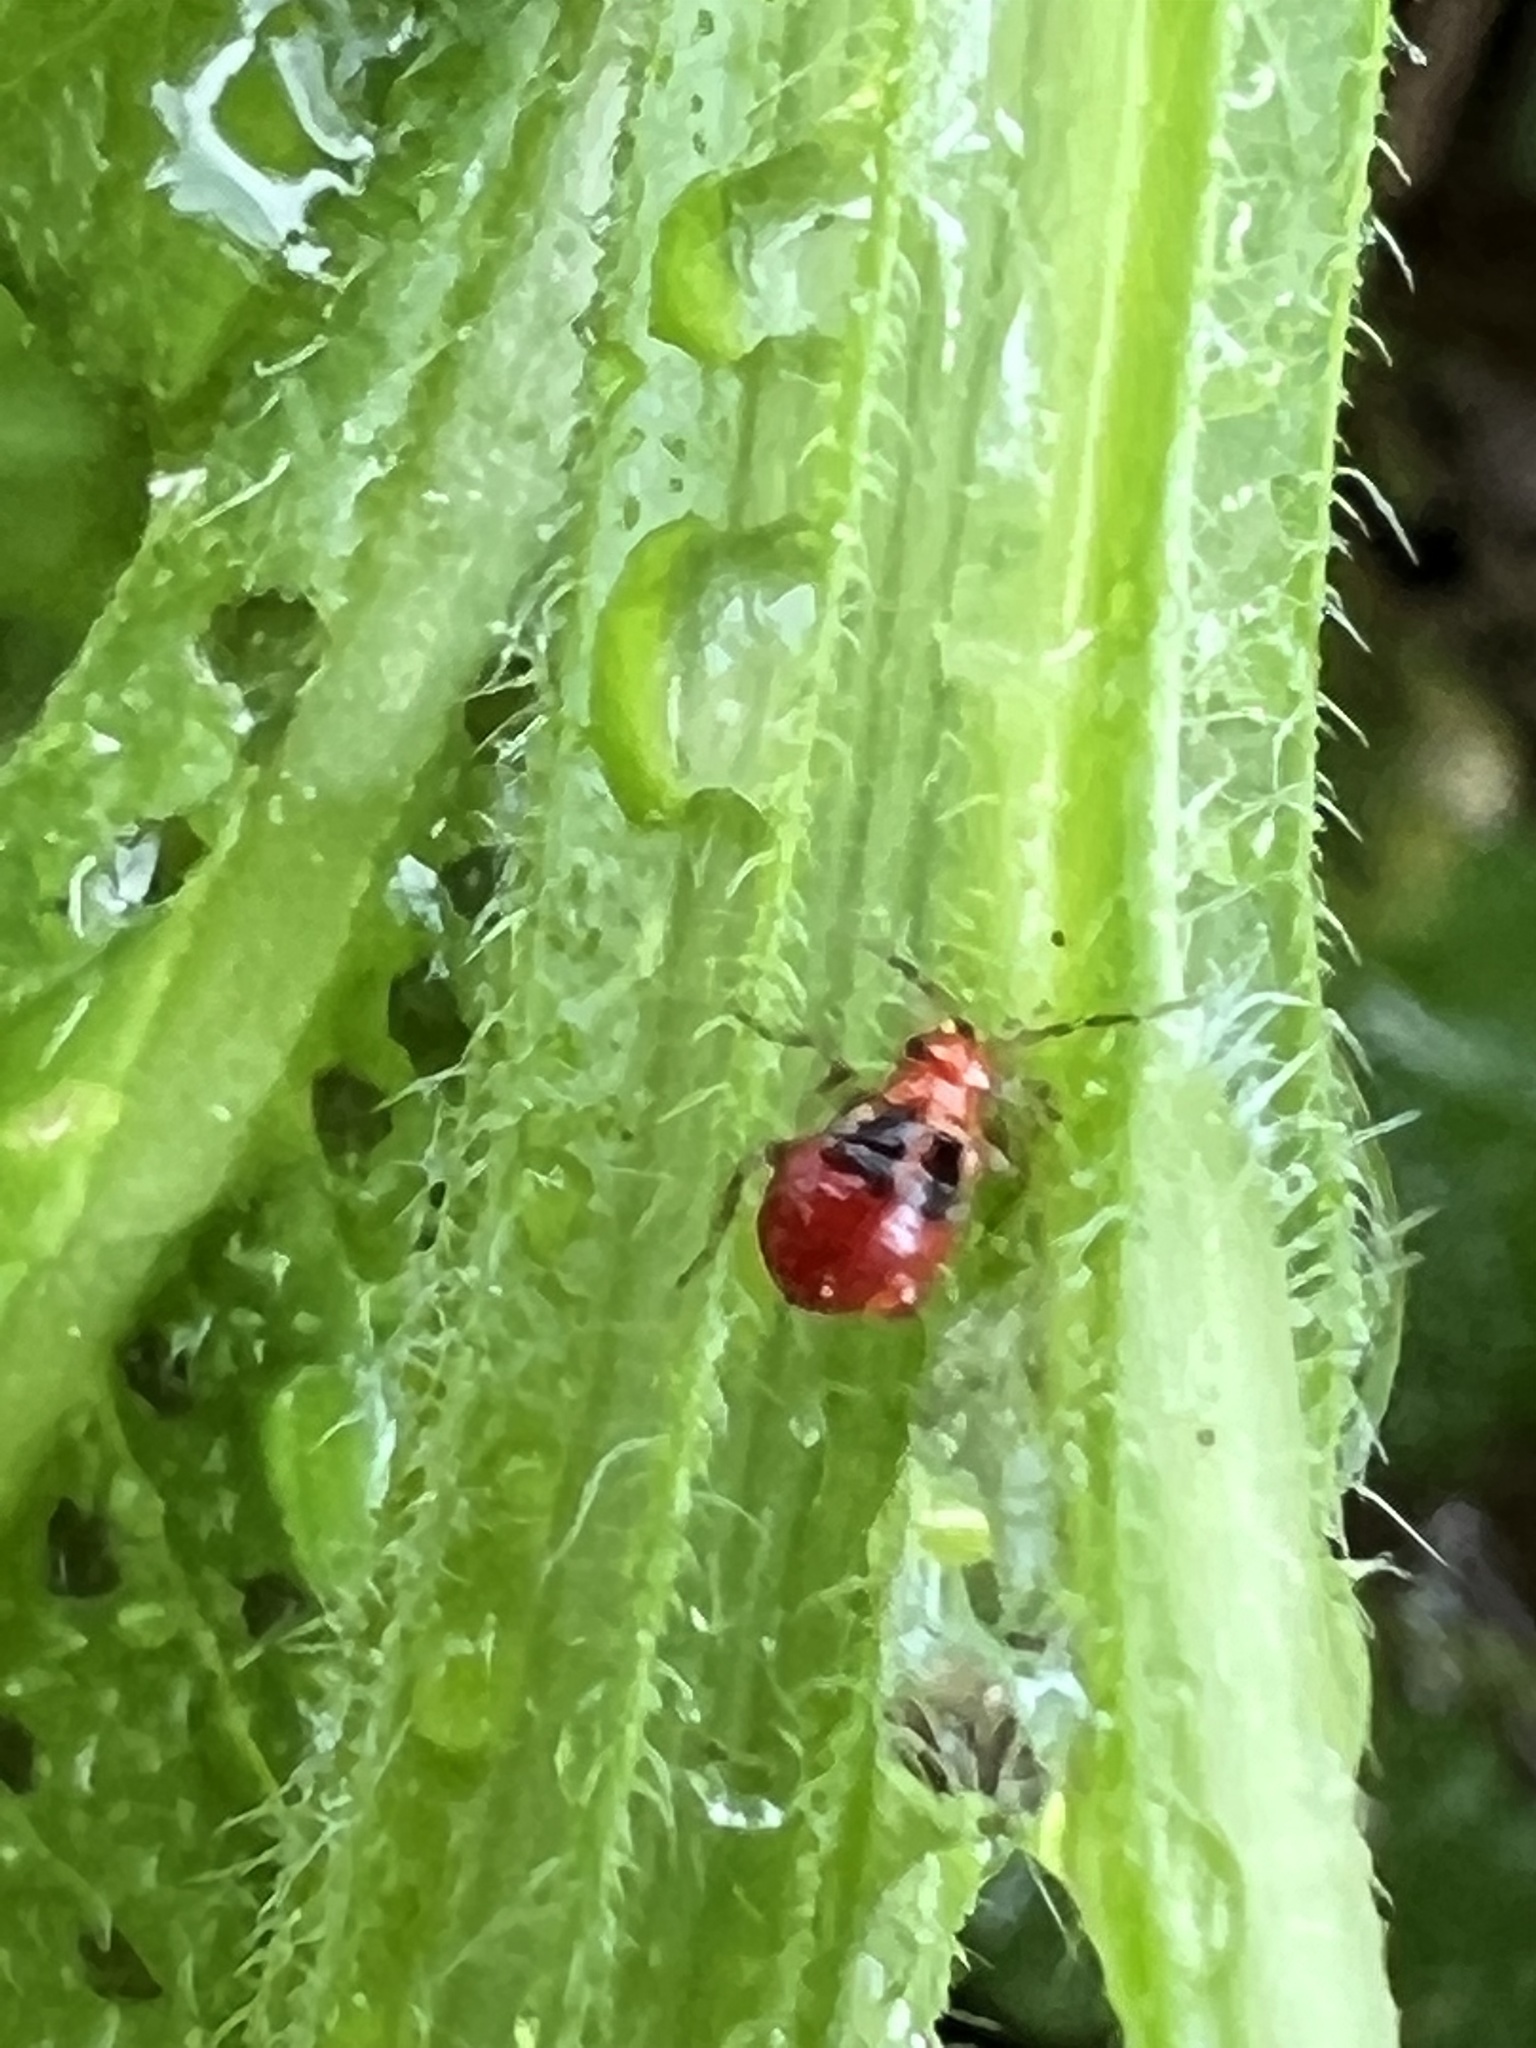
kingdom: Animalia
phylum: Arthropoda
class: Insecta
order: Hemiptera
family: Miridae
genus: Poecilocapsus
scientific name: Poecilocapsus lineatus
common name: Four-lined plant bug
